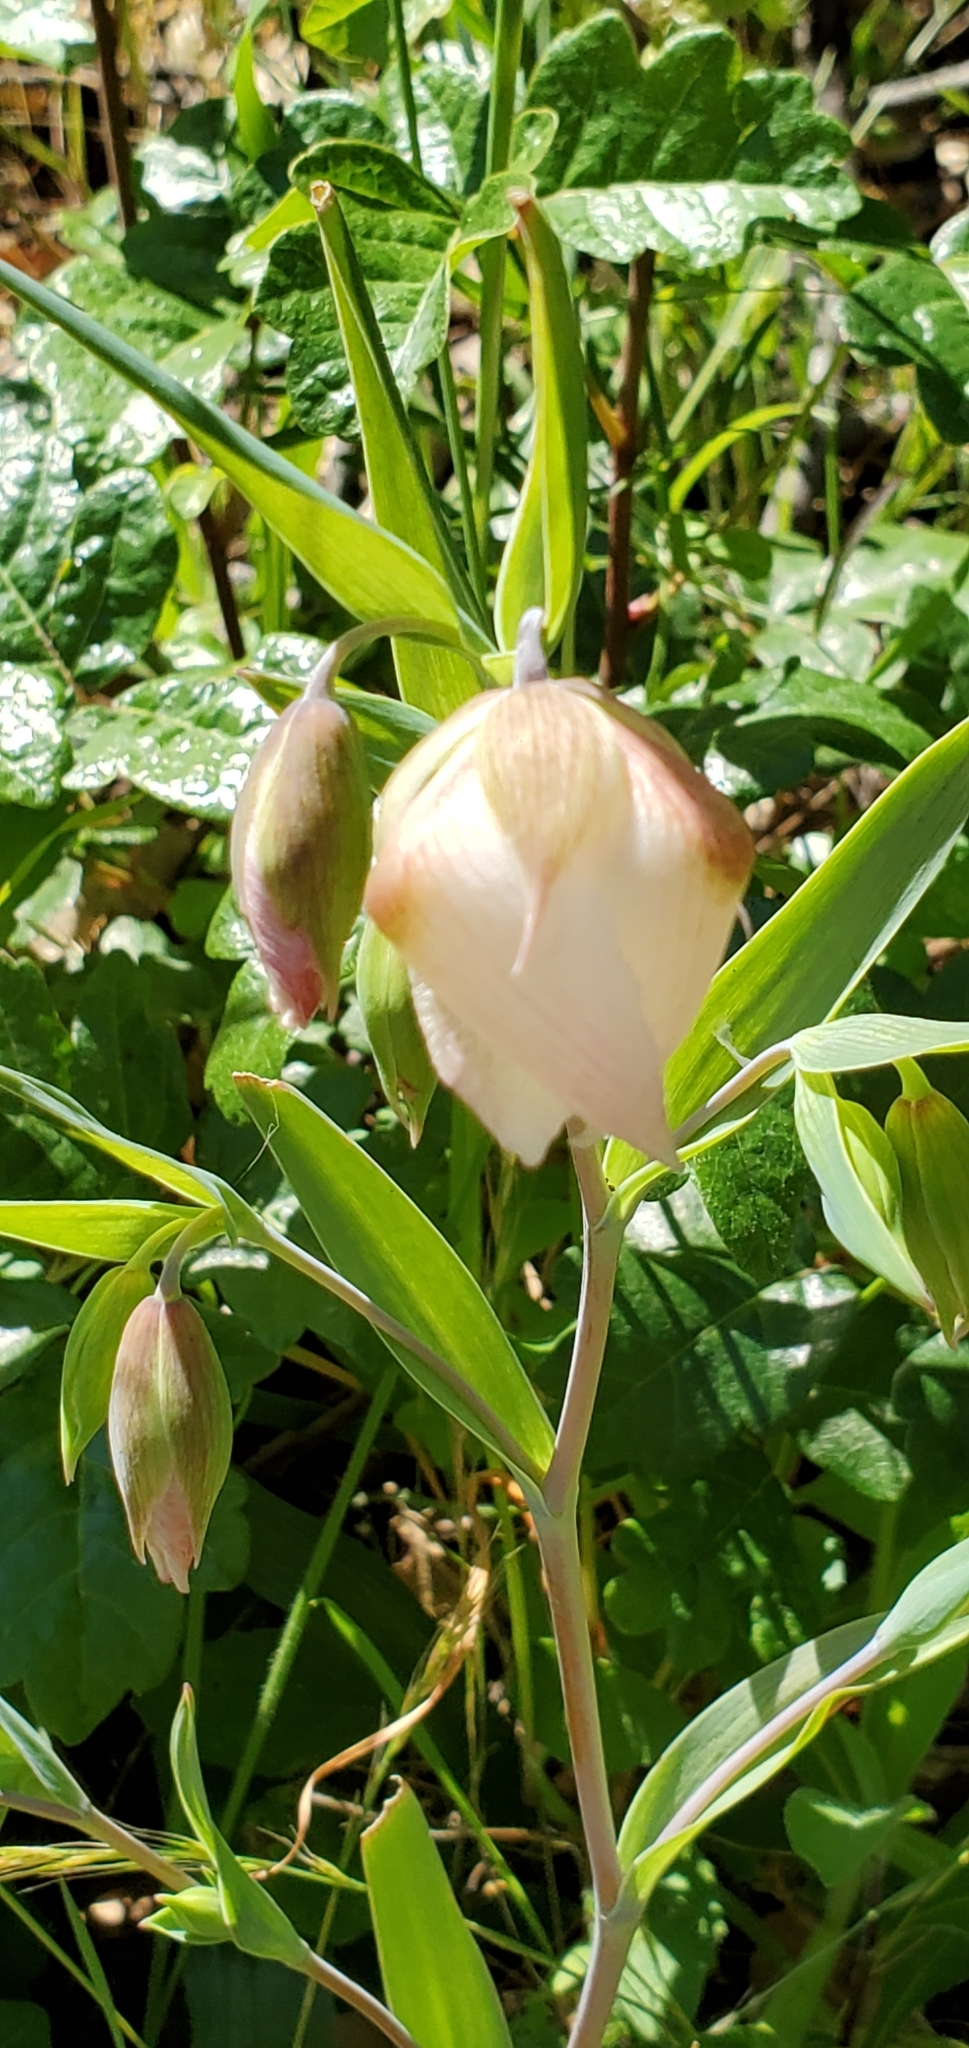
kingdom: Plantae
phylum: Tracheophyta
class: Liliopsida
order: Liliales
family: Liliaceae
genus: Calochortus
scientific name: Calochortus albus
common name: Fairy-lantern
